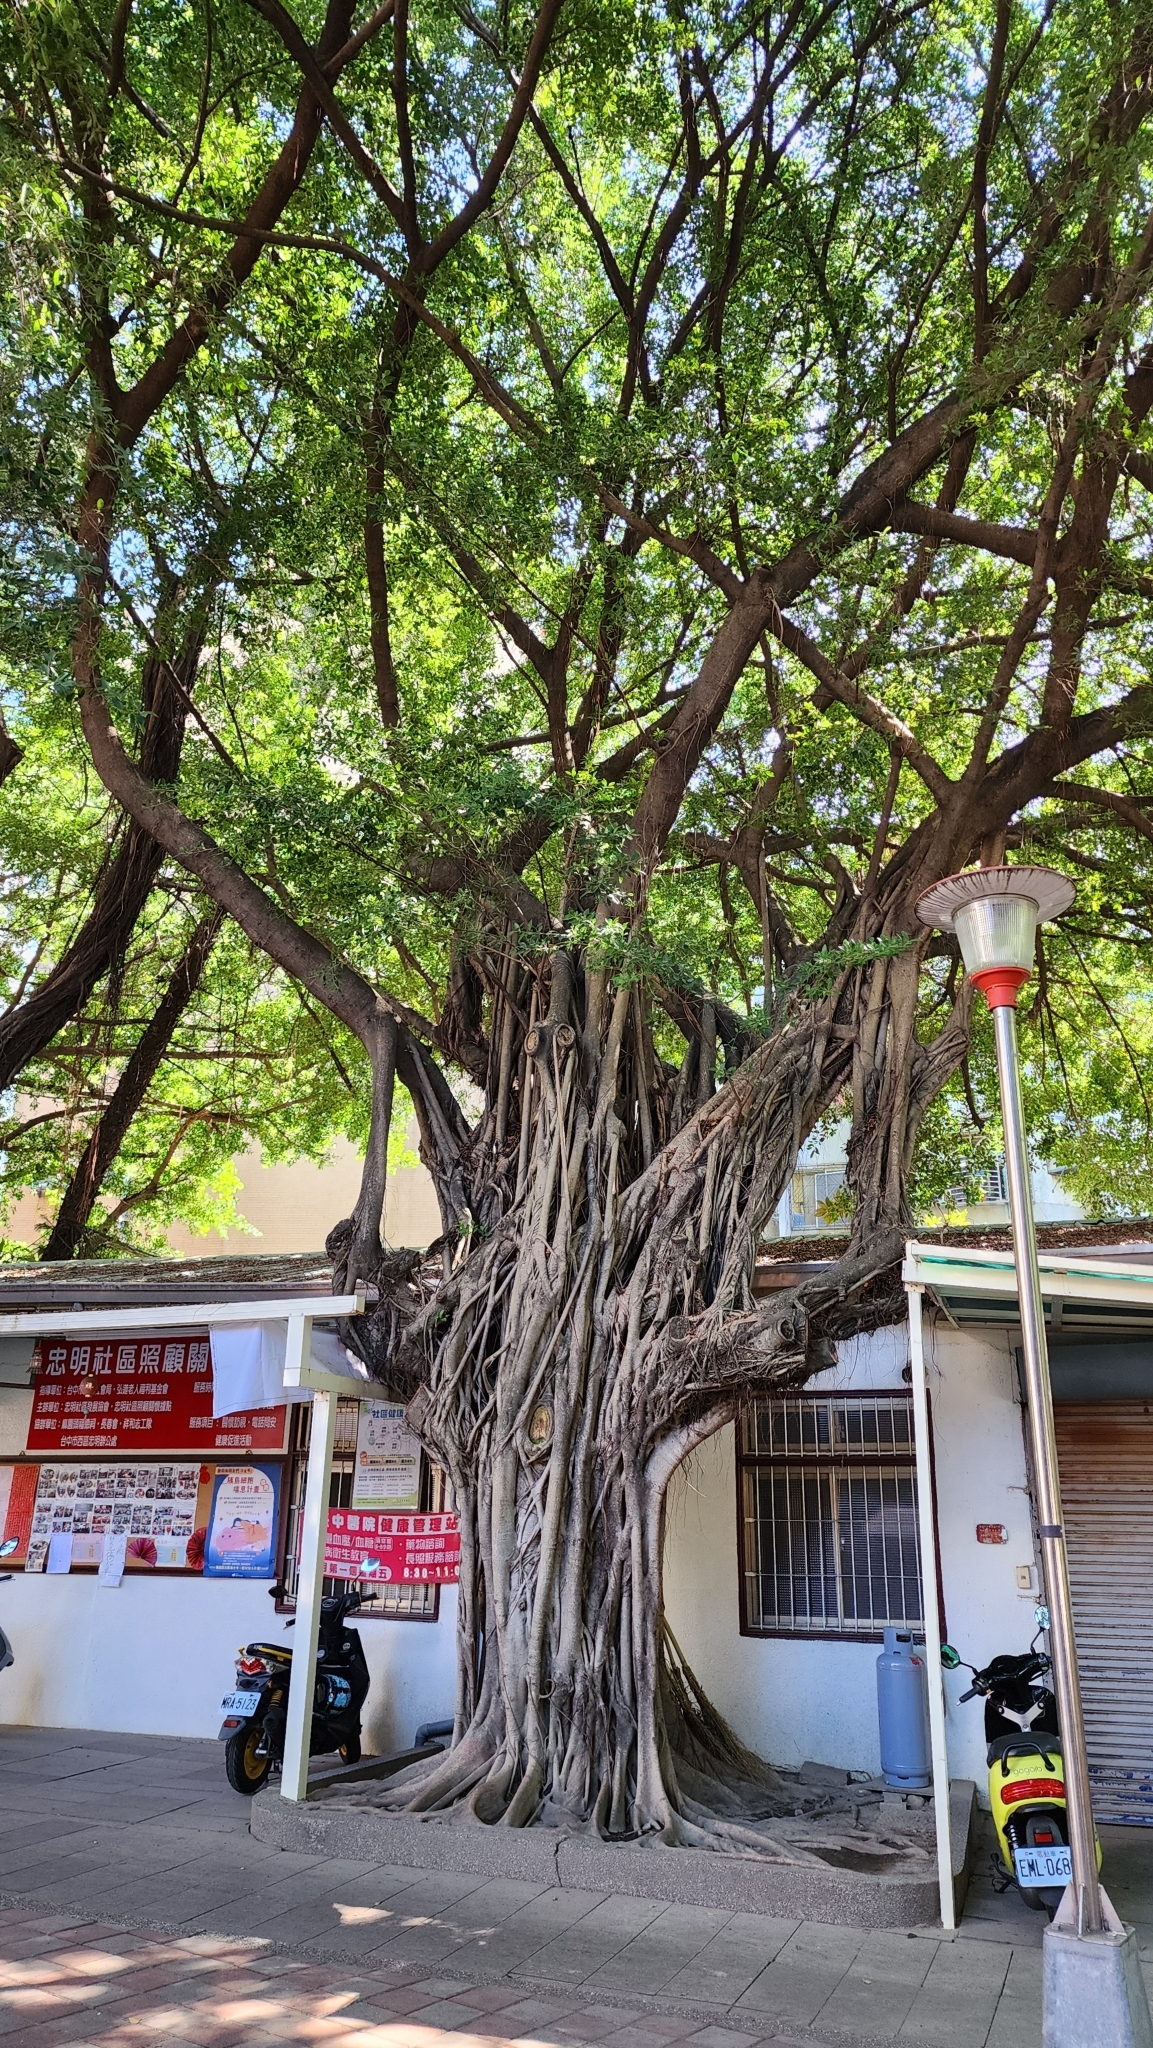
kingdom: Plantae
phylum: Tracheophyta
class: Magnoliopsida
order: Rosales
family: Moraceae
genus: Ficus
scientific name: Ficus microcarpa
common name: Chinese banyan
